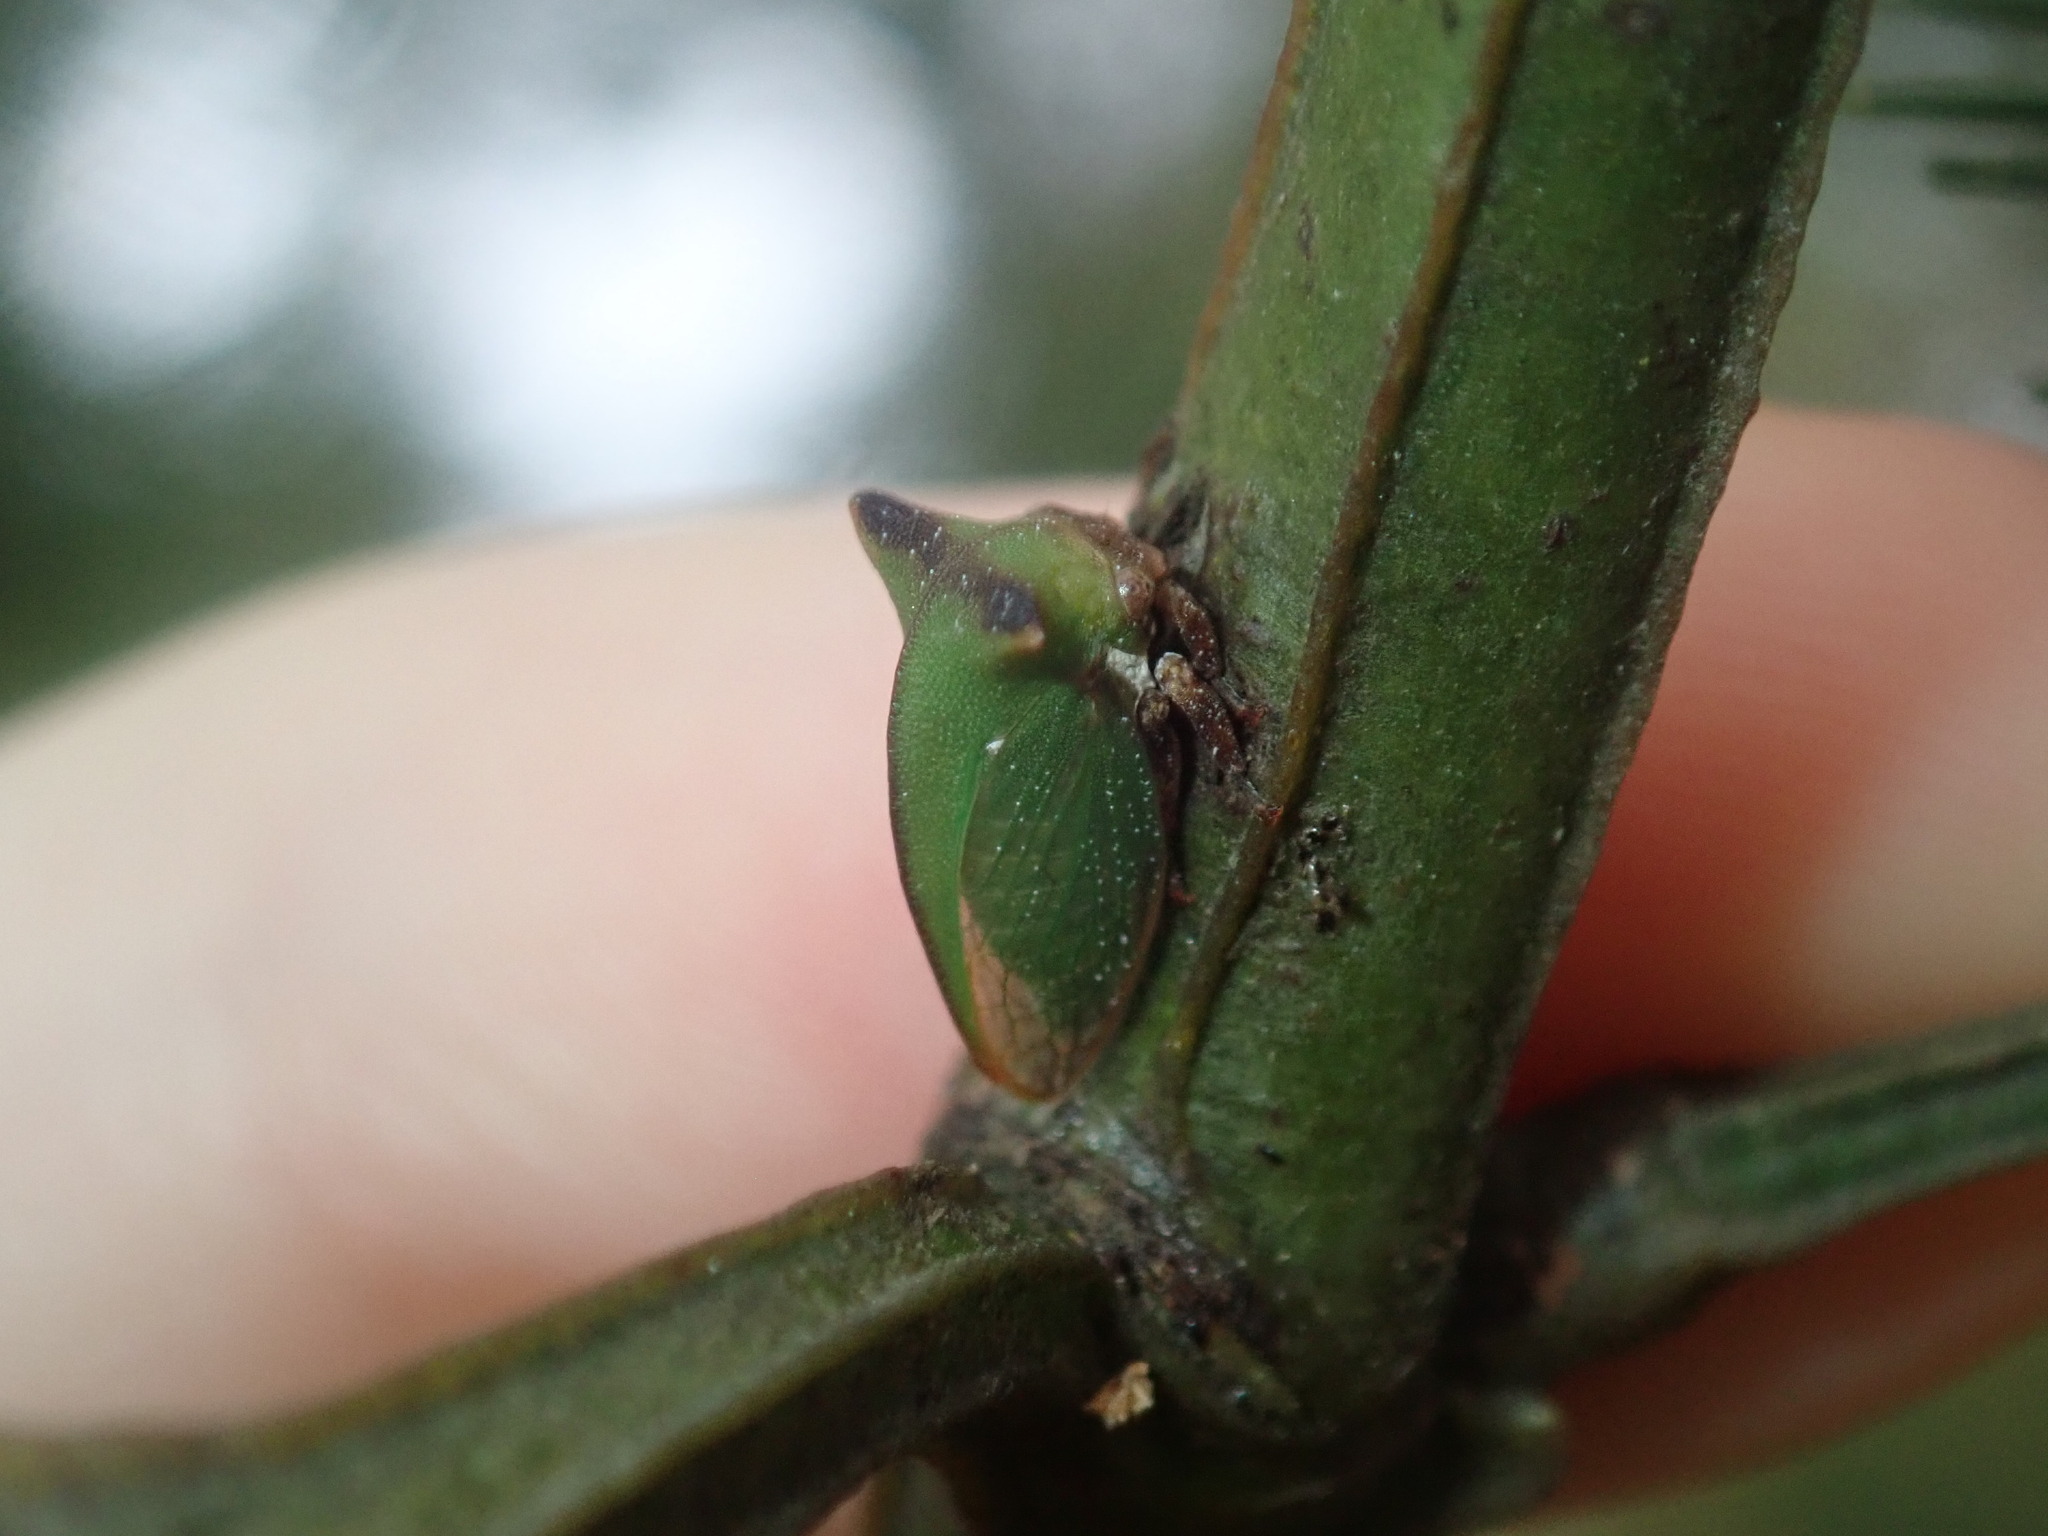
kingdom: Animalia
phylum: Arthropoda
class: Insecta
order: Hemiptera
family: Membracidae
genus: Sextius
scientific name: Sextius virescens
